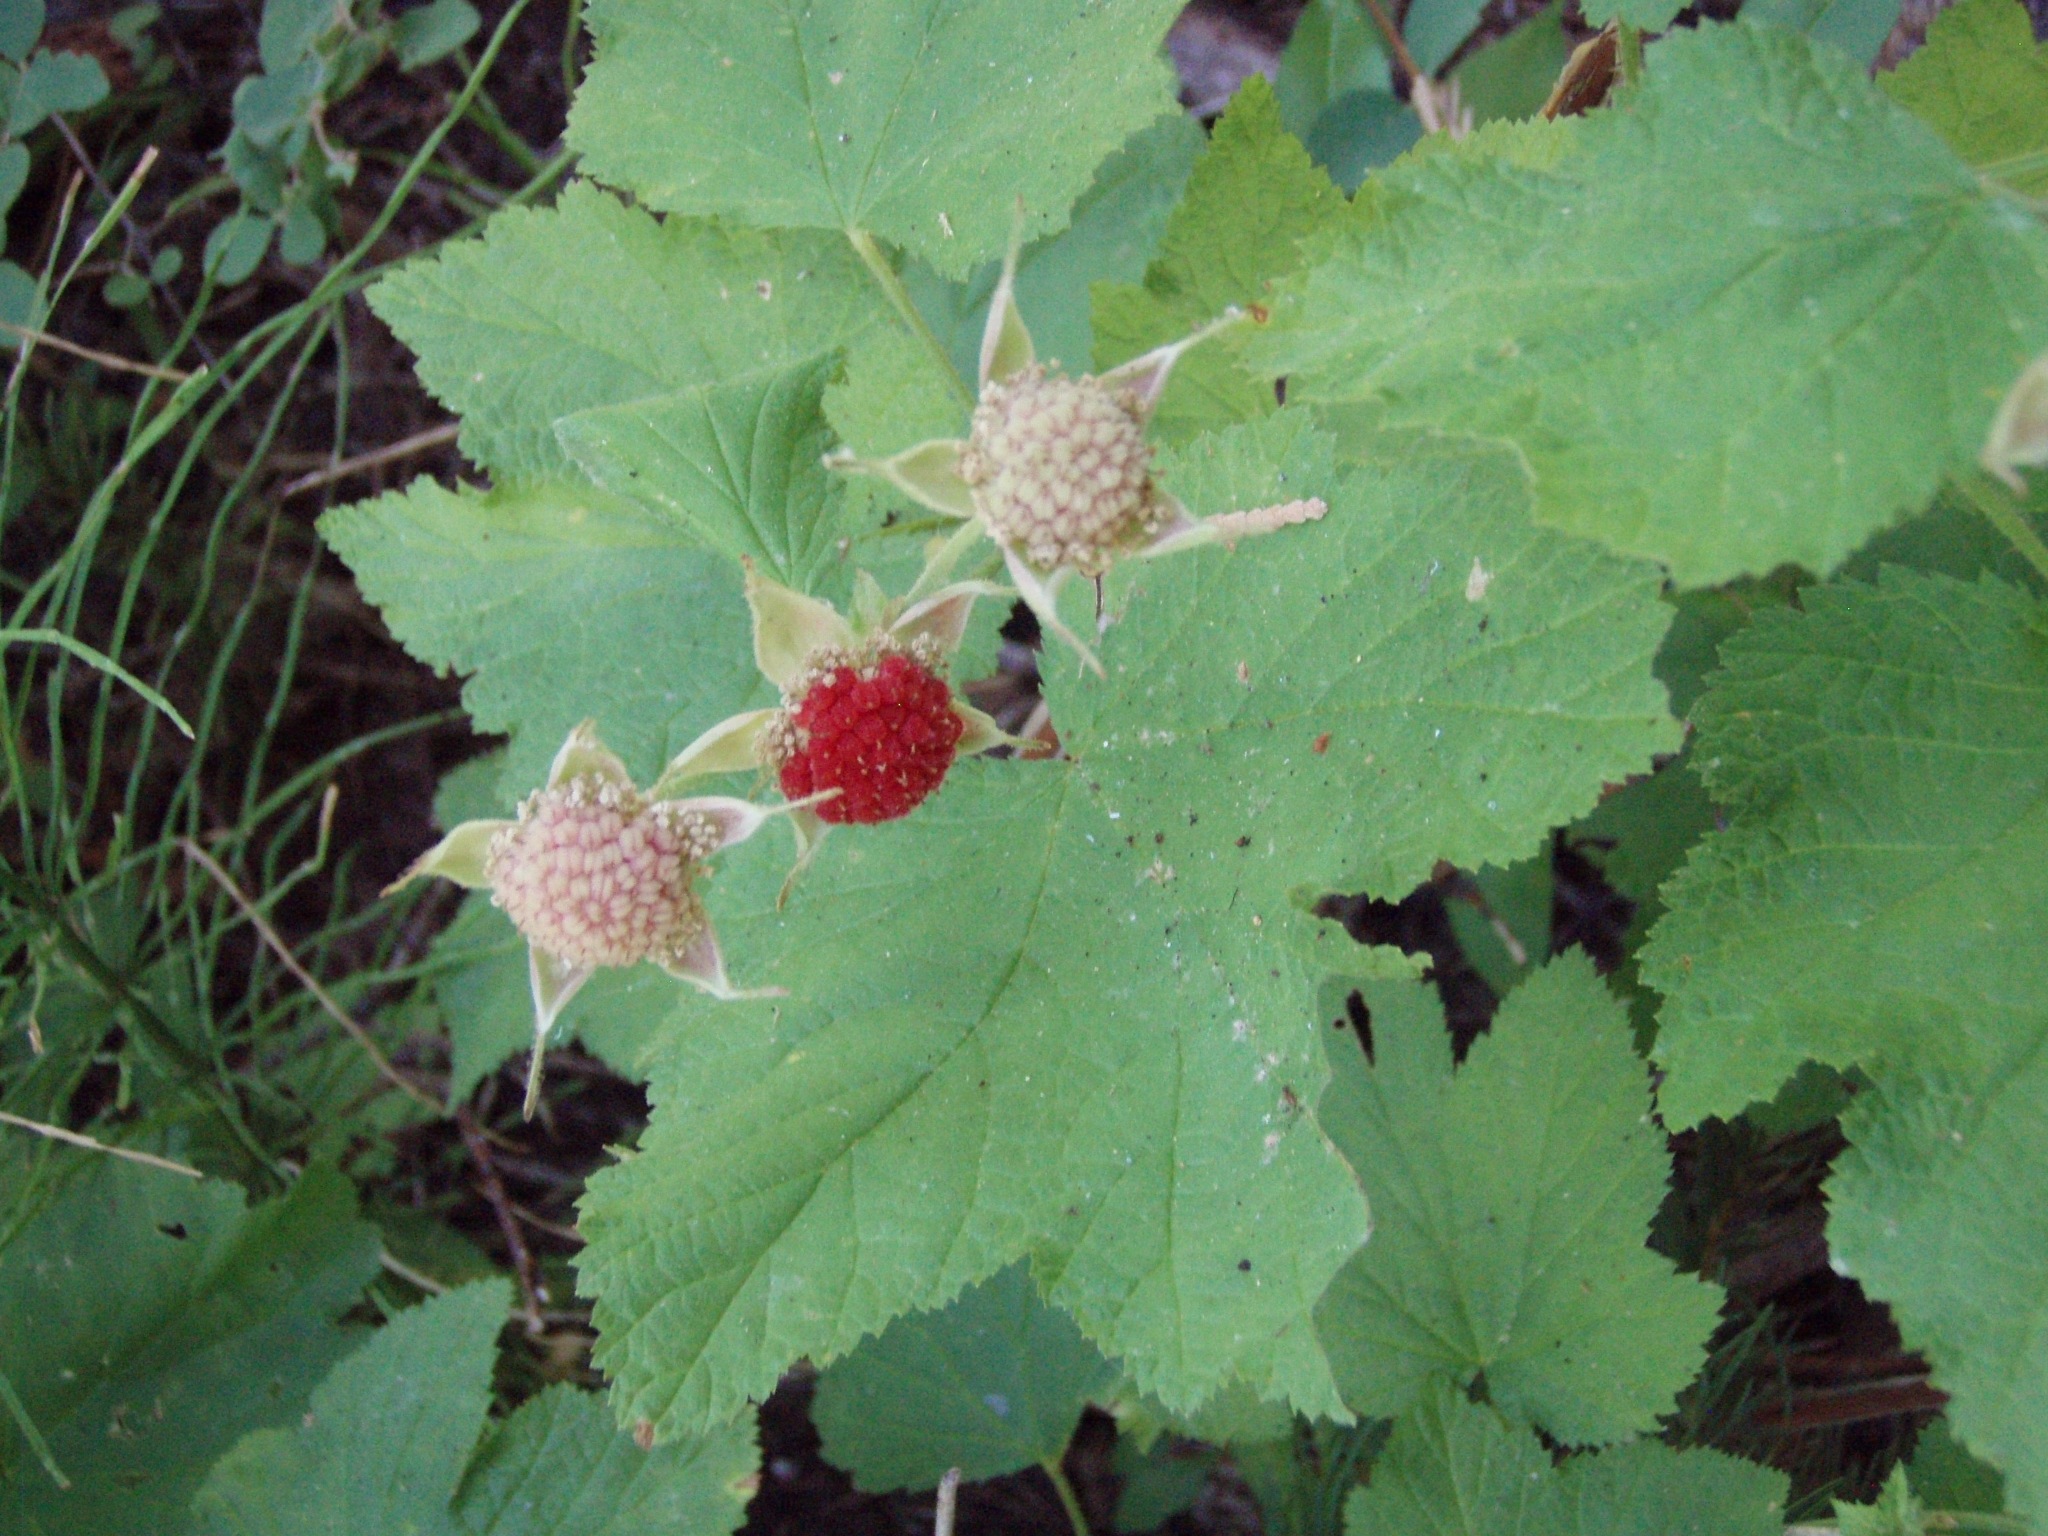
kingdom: Plantae
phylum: Tracheophyta
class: Magnoliopsida
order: Rosales
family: Rosaceae
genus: Rubus
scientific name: Rubus parviflorus
